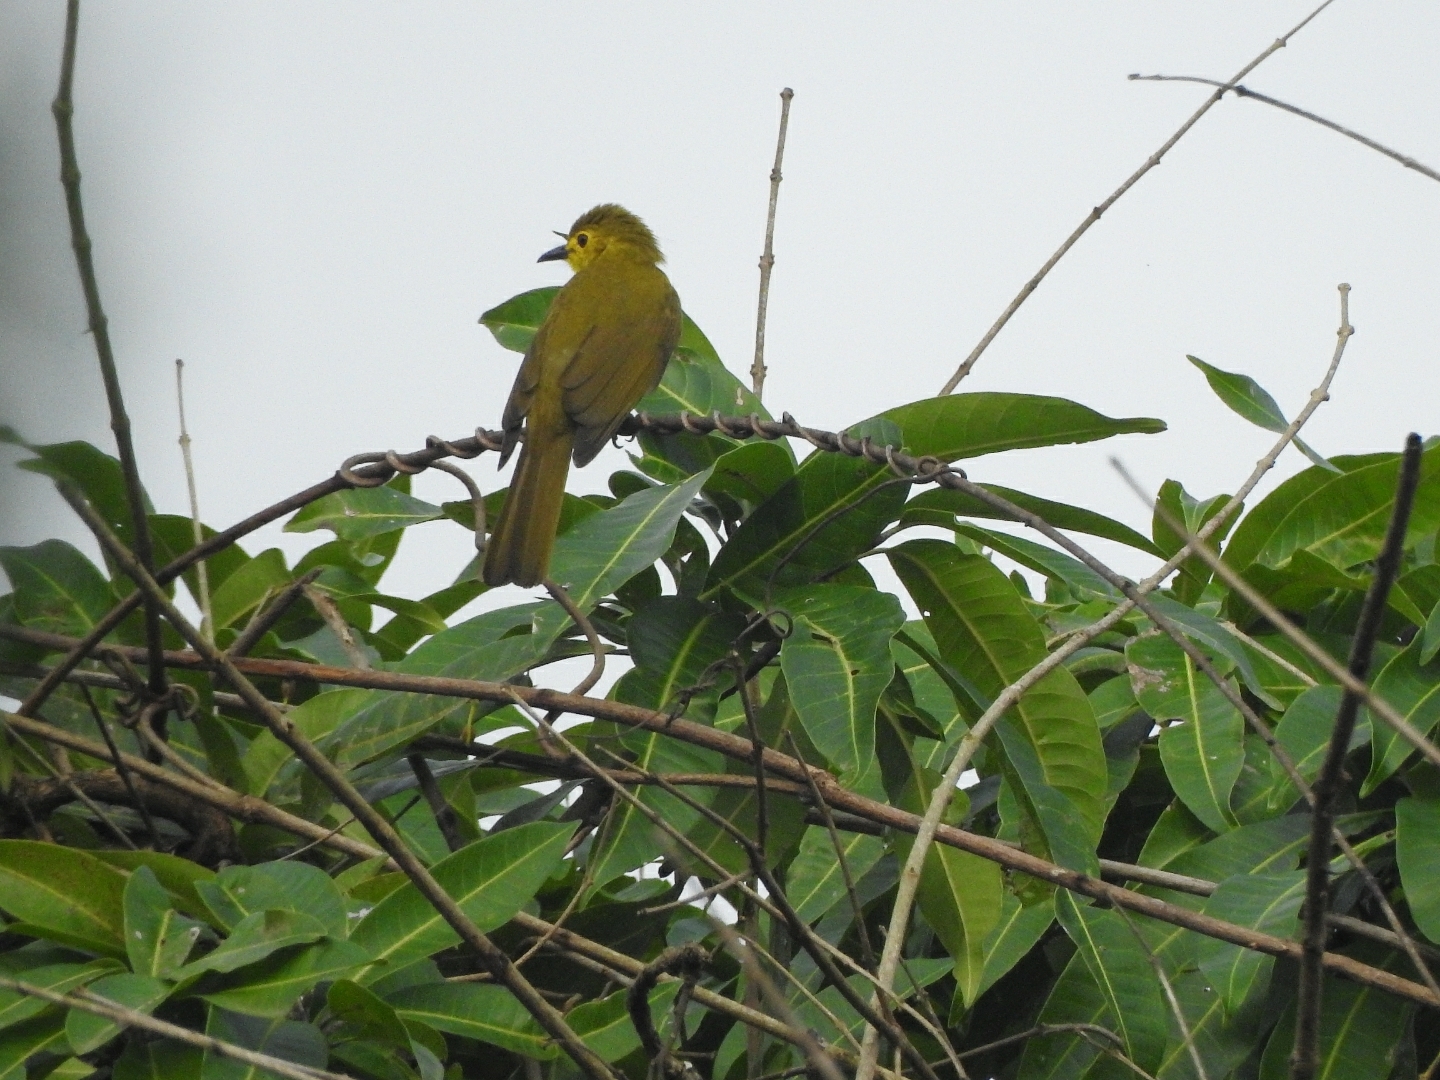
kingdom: Animalia
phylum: Chordata
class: Aves
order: Passeriformes
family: Pycnonotidae
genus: Acritillas
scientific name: Acritillas indica
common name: Yellow-browed bulbul
